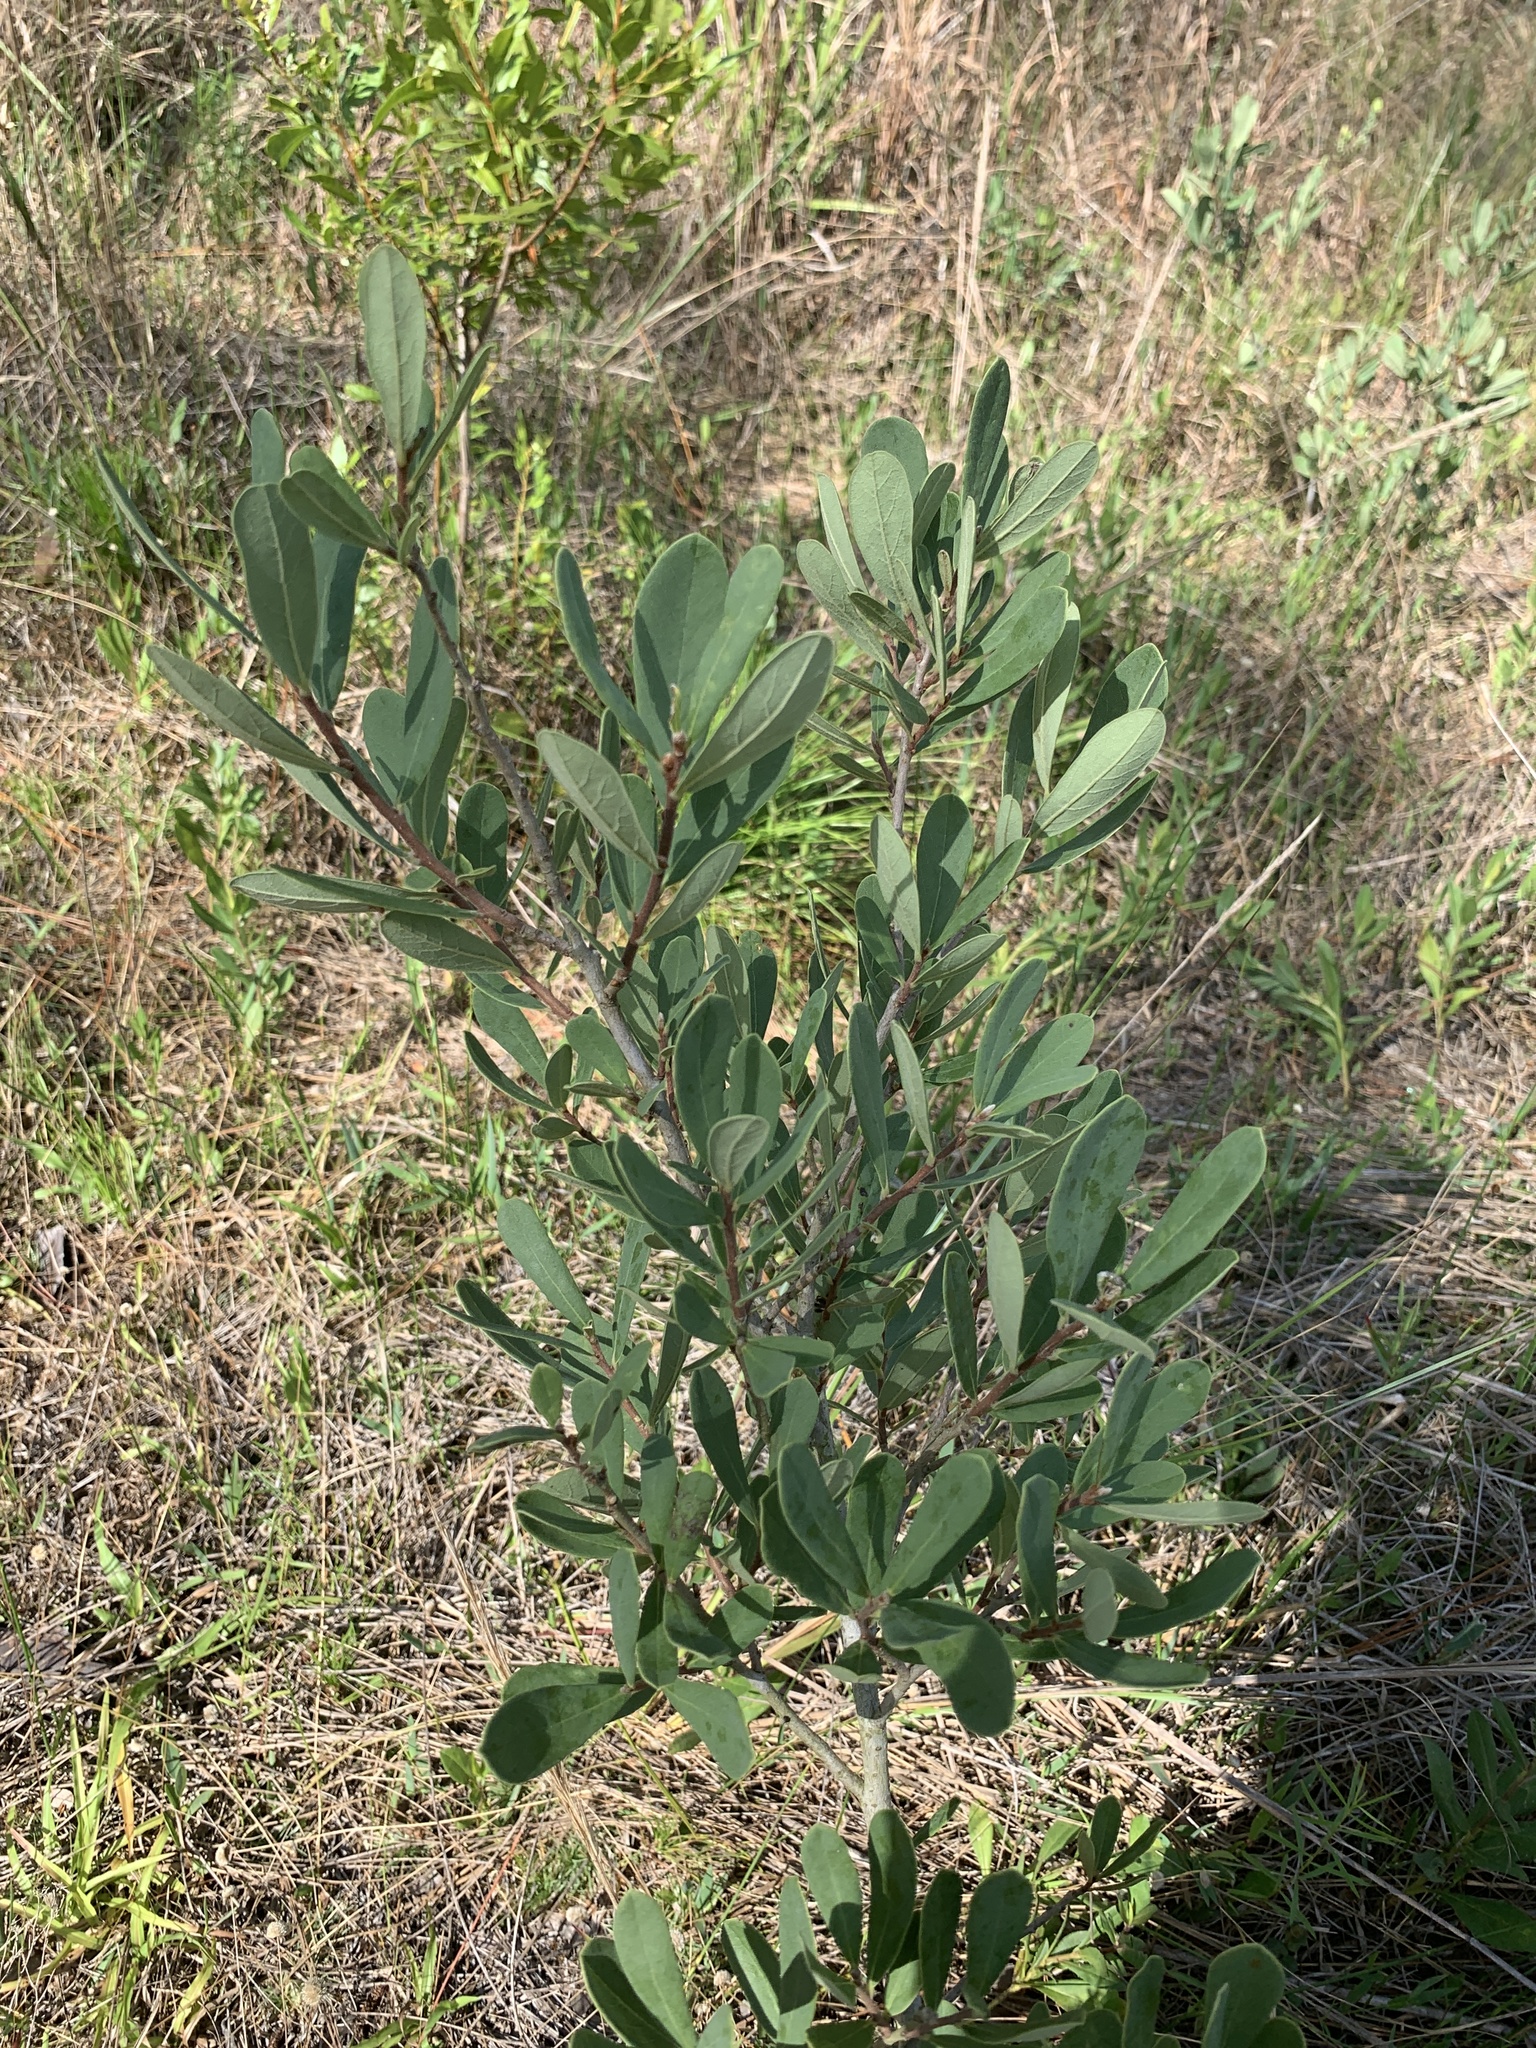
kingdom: Plantae
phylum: Tracheophyta
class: Magnoliopsida
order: Magnoliales
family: Annonaceae
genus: Asimina
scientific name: Asimina reticulata
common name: Flag pawpaw
